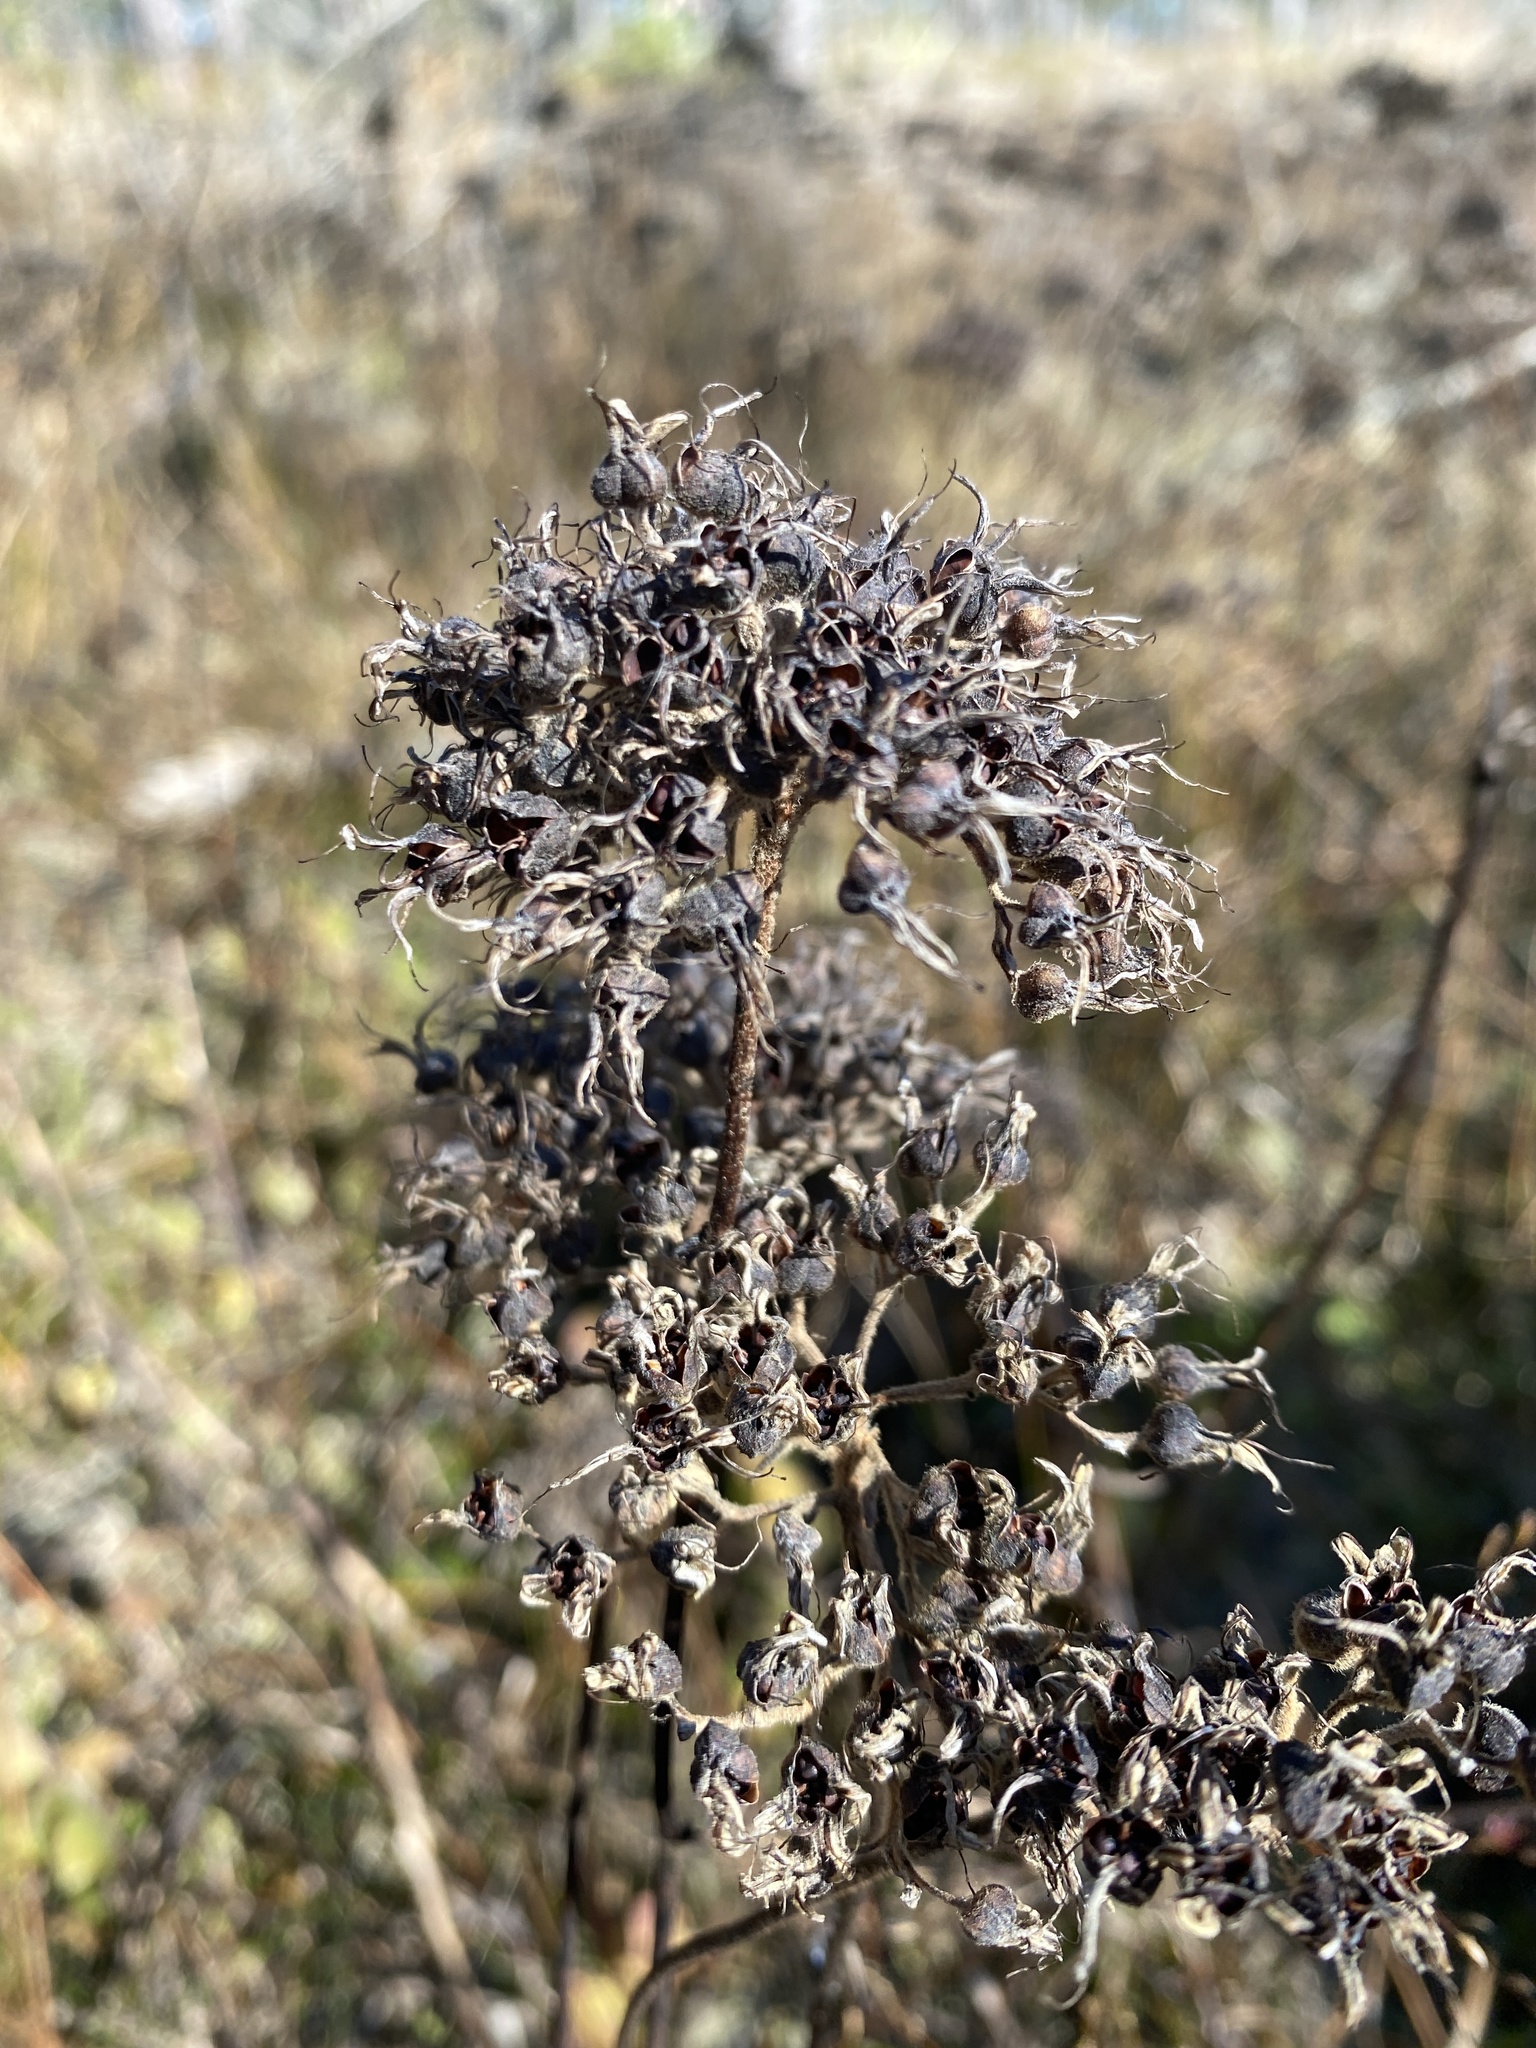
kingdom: Plantae
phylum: Tracheophyta
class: Liliopsida
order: Commelinales
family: Haemodoraceae
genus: Lachnanthes
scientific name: Lachnanthes caroliana
